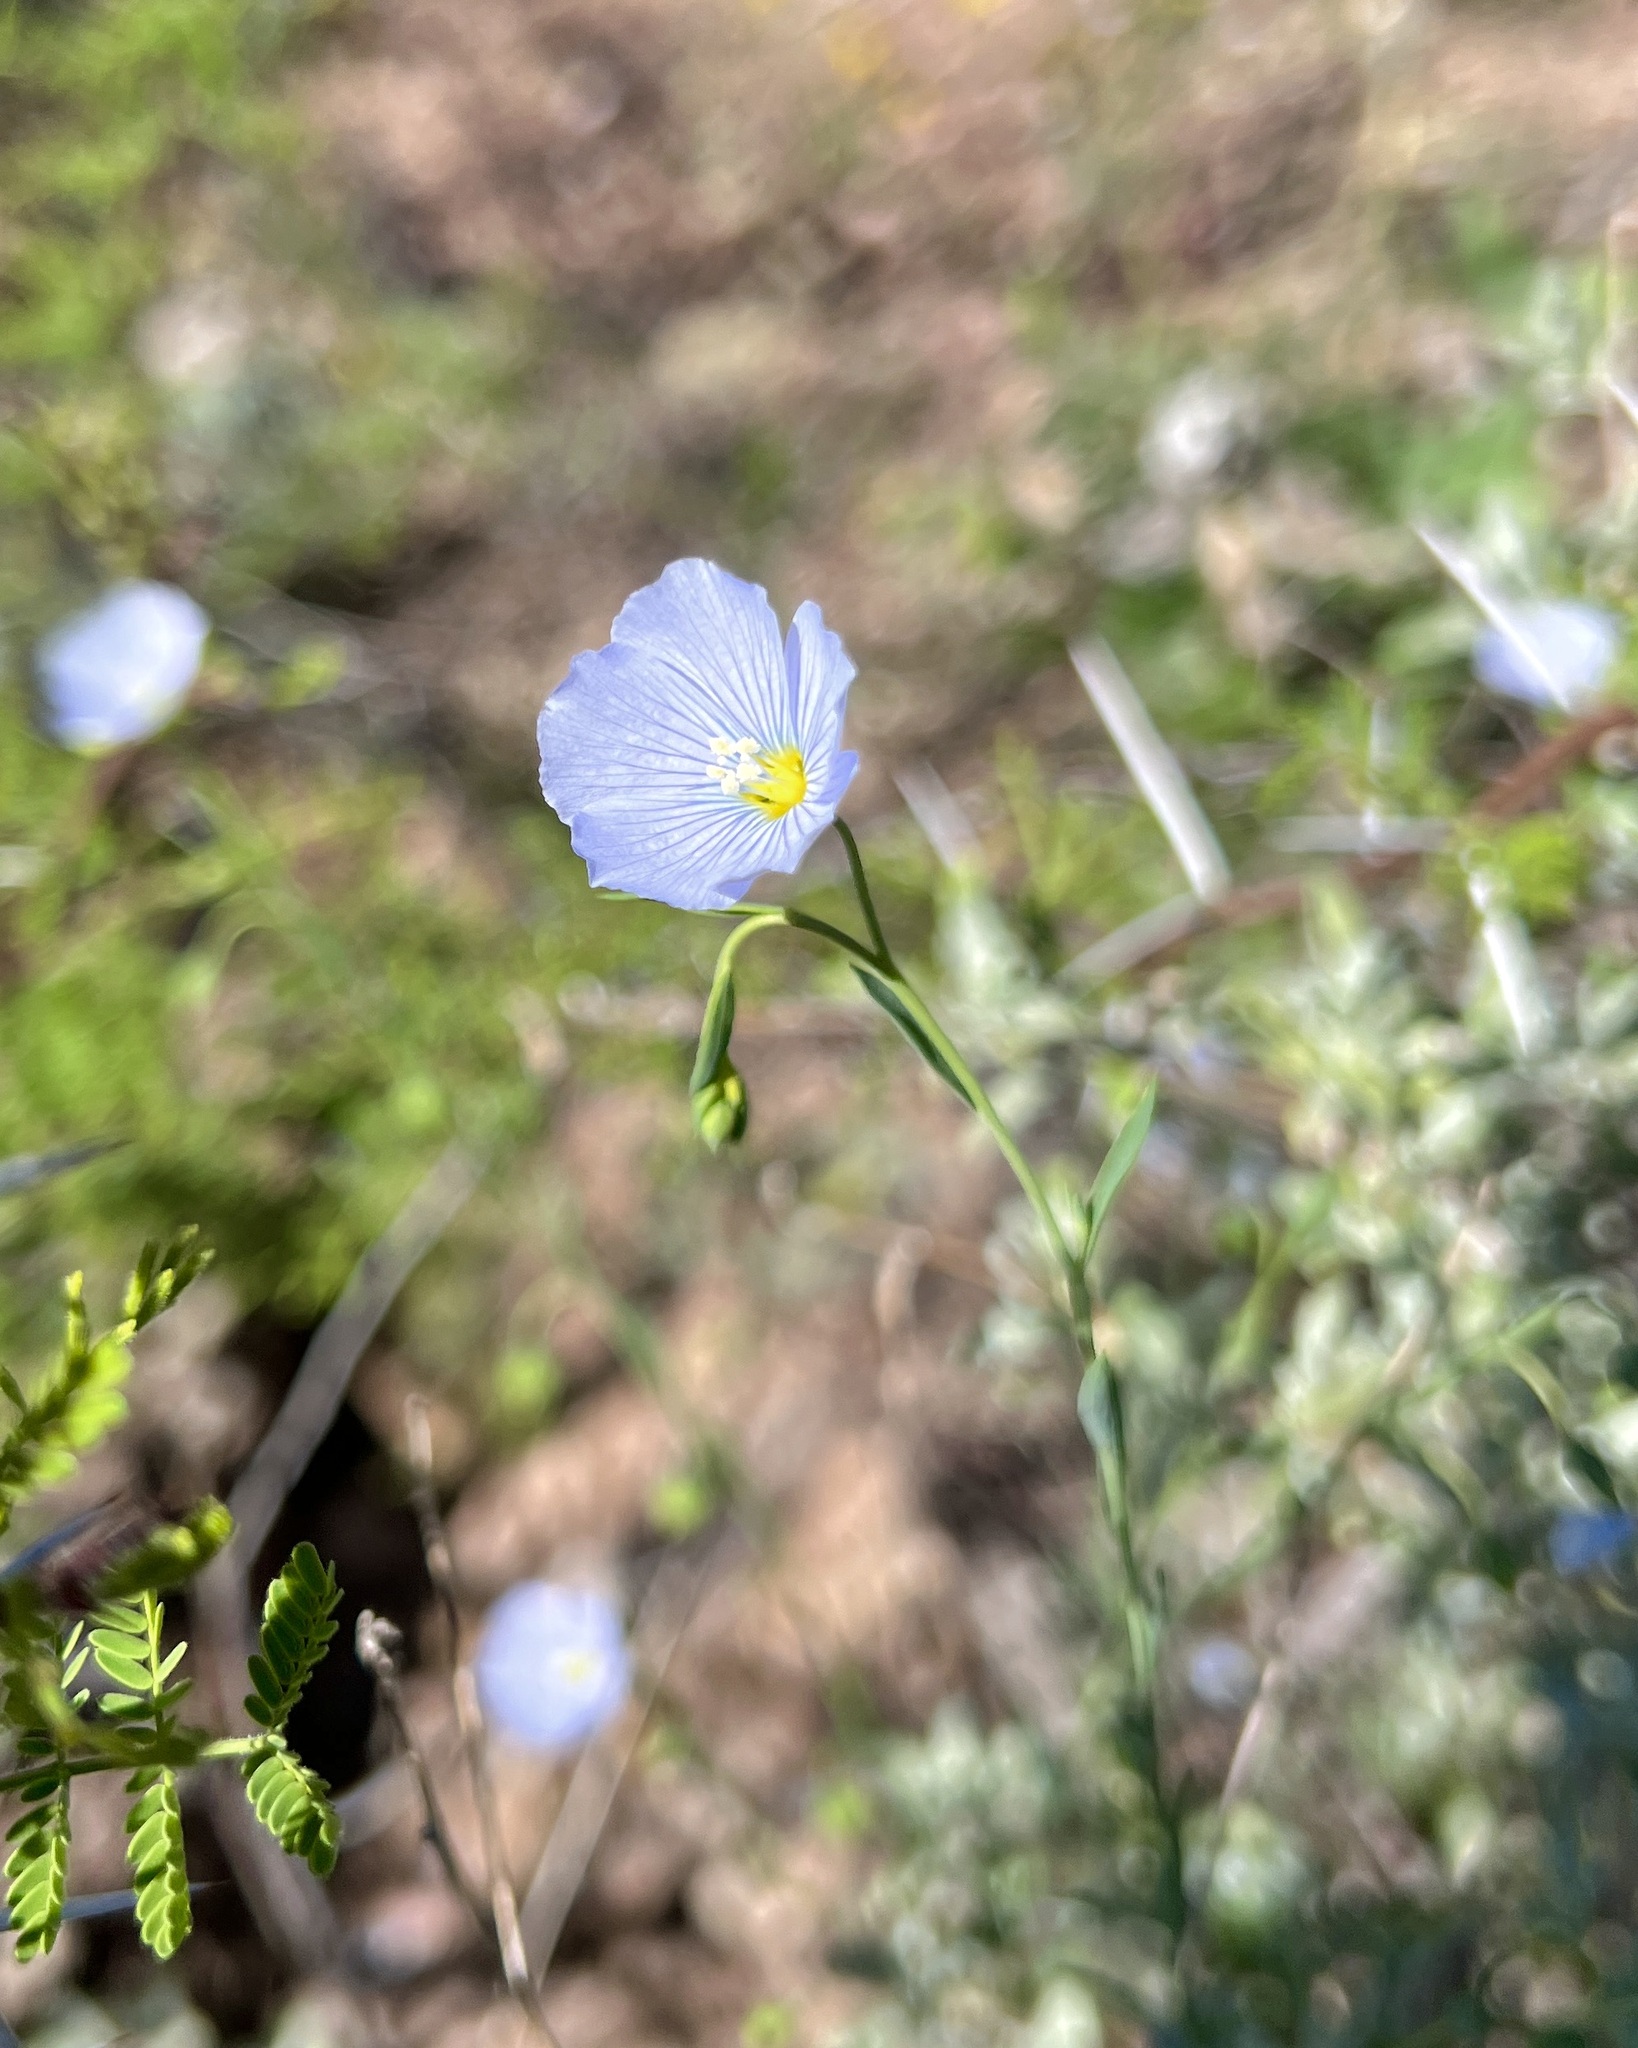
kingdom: Plantae
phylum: Tracheophyta
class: Magnoliopsida
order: Malpighiales
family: Linaceae
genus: Linum
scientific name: Linum lewisii
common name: Prairie flax
